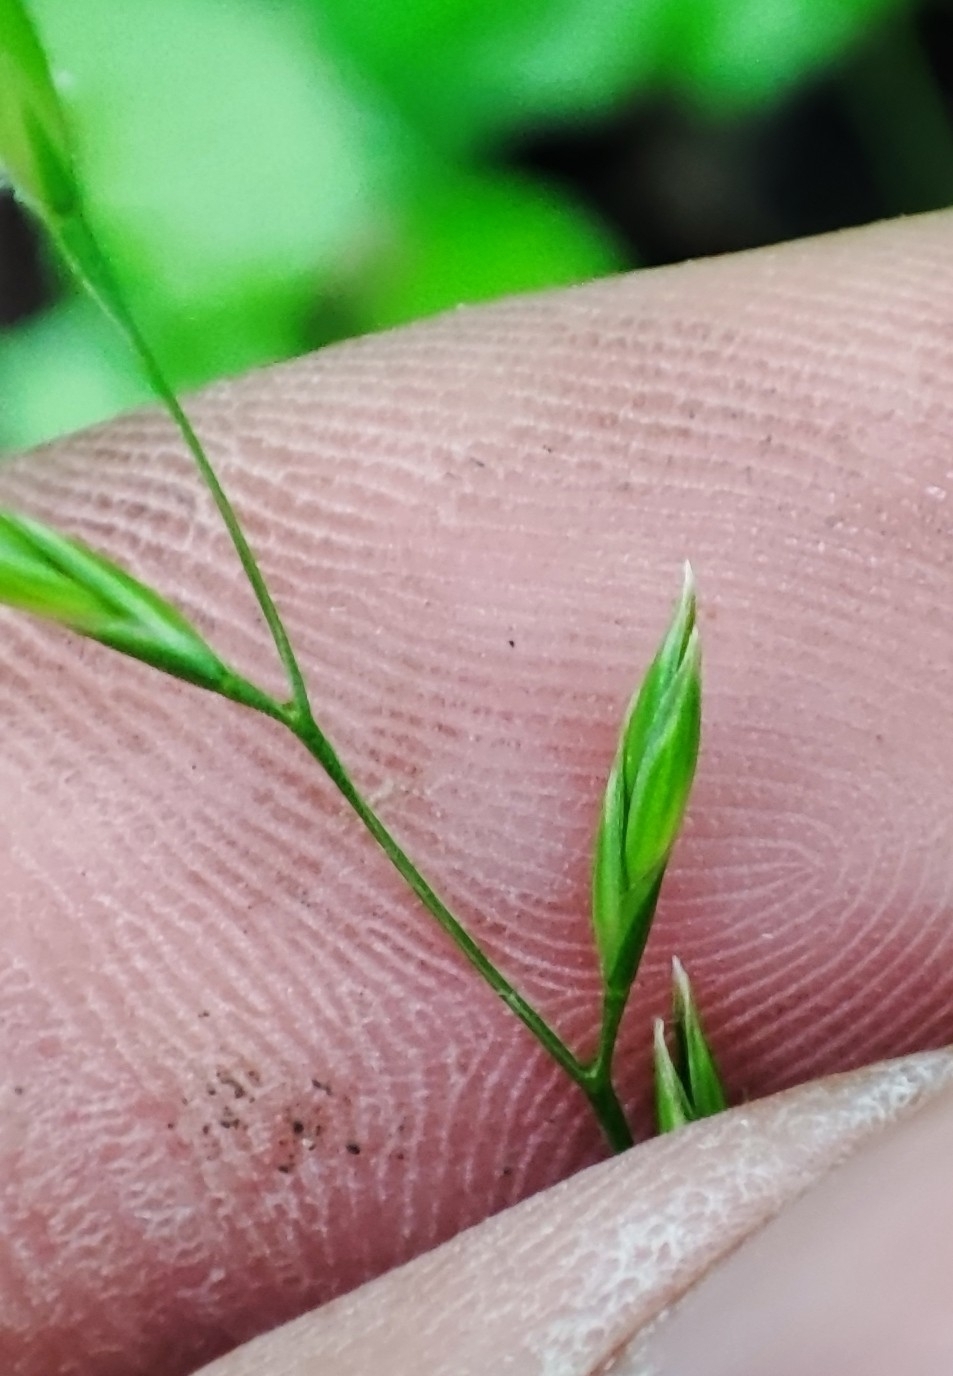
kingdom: Plantae
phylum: Tracheophyta
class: Liliopsida
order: Poales
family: Poaceae
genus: Lolium
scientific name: Lolium pratense
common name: Dover grass
